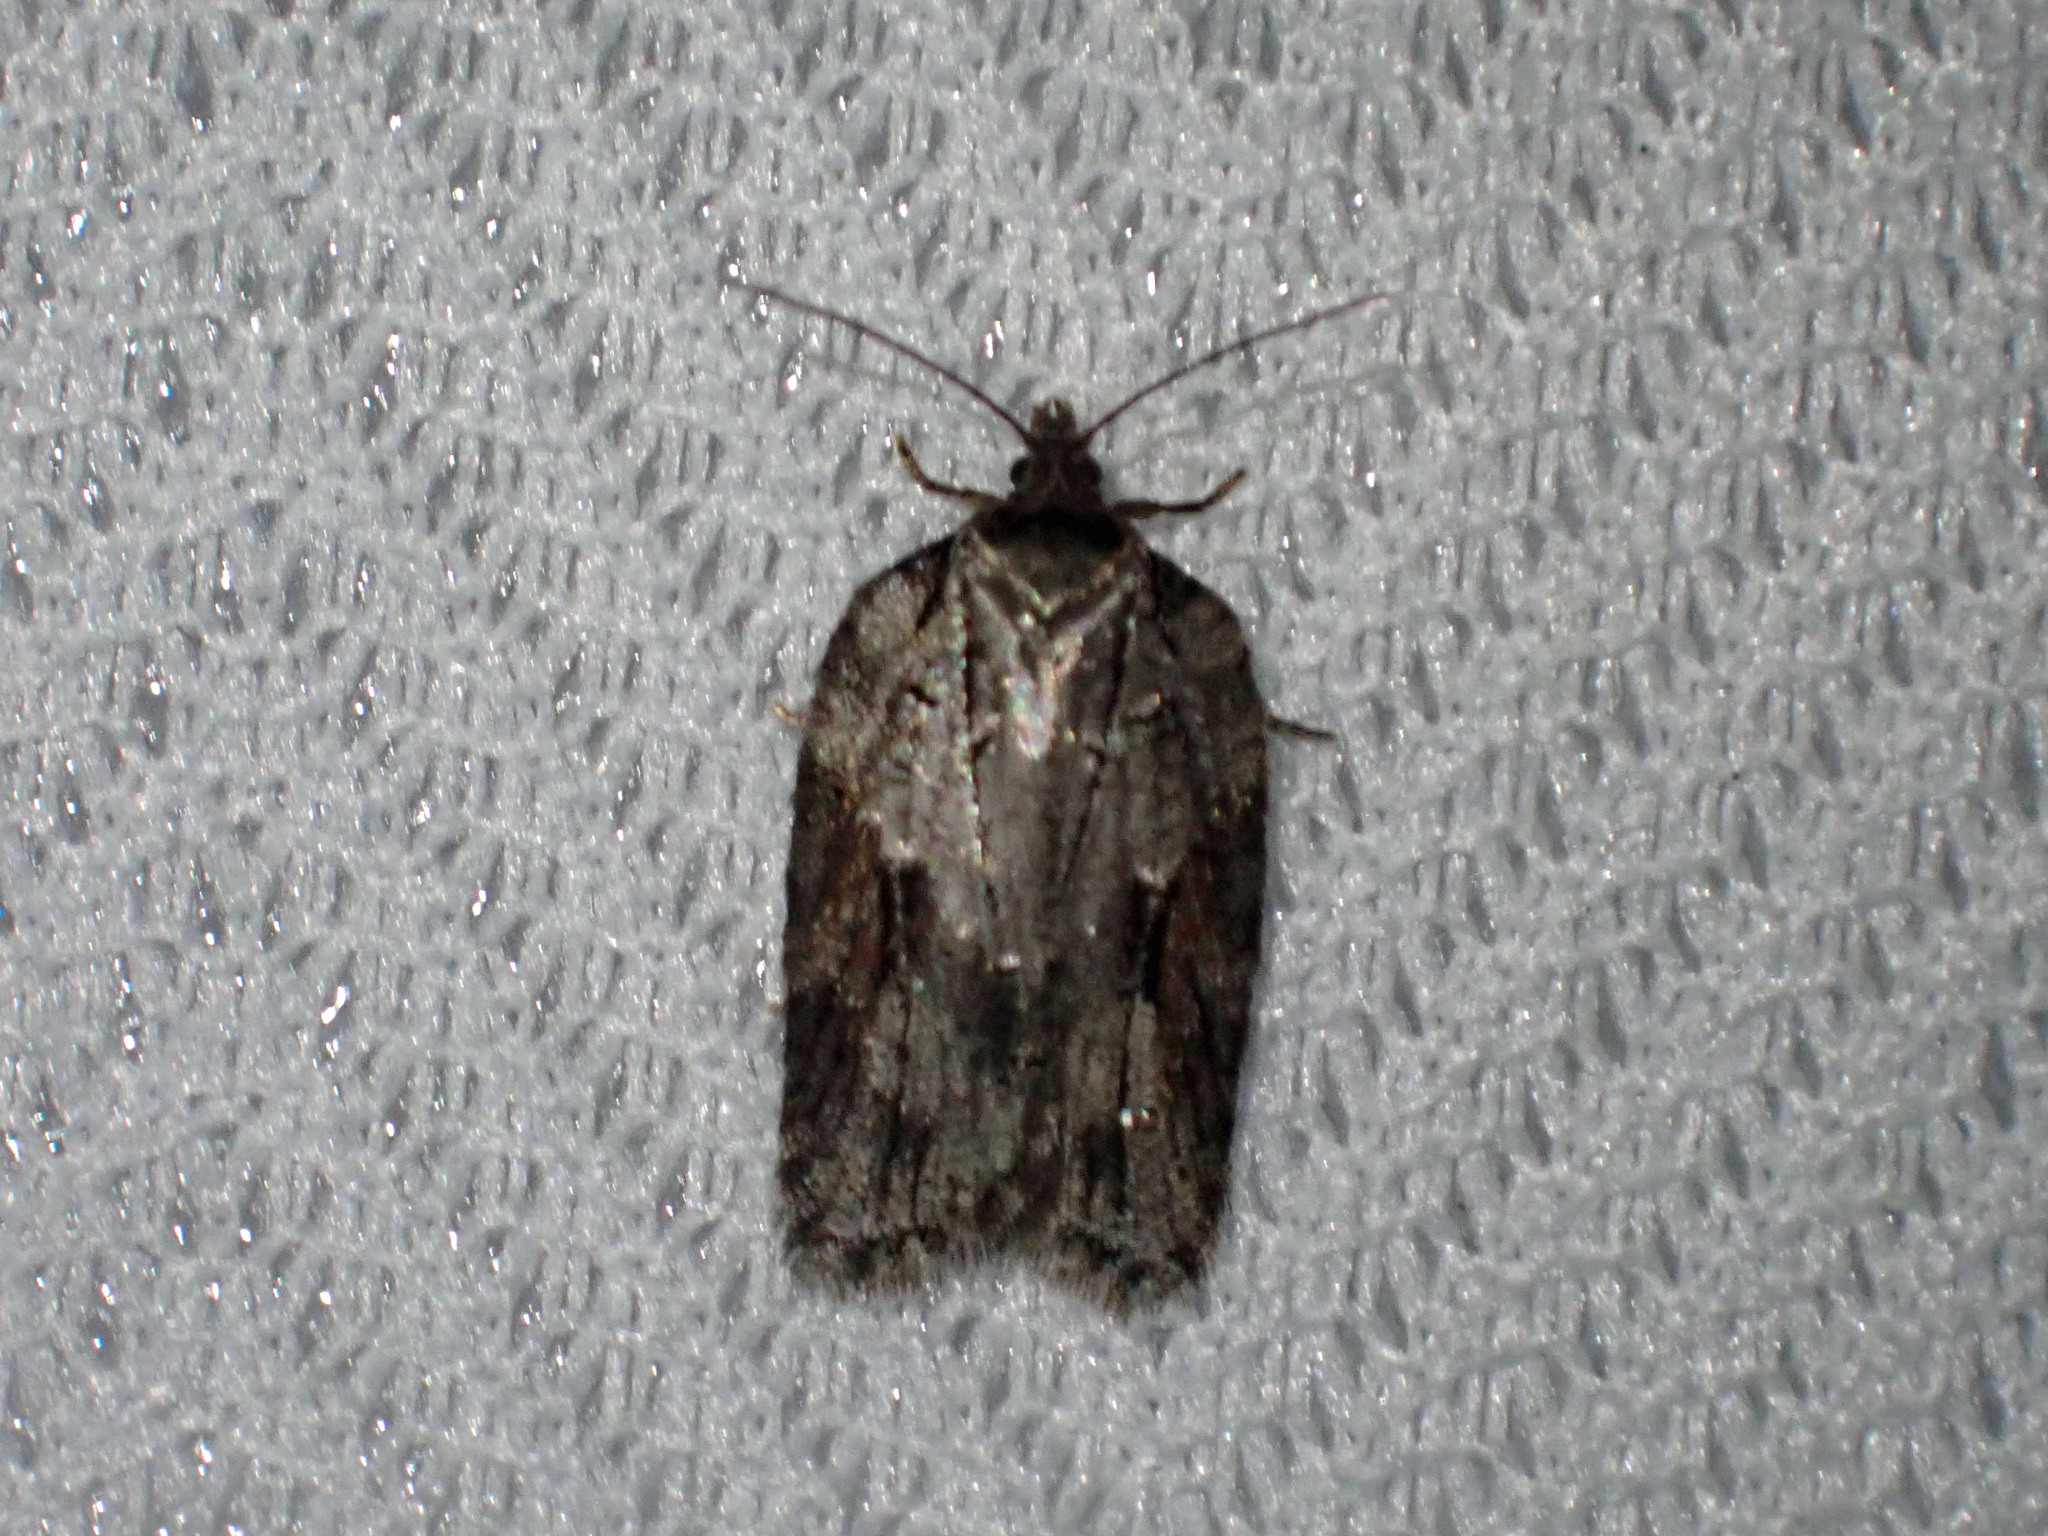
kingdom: Animalia
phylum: Arthropoda
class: Insecta
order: Lepidoptera
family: Tortricidae
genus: Acleris
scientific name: Acleris ptychogrammos
